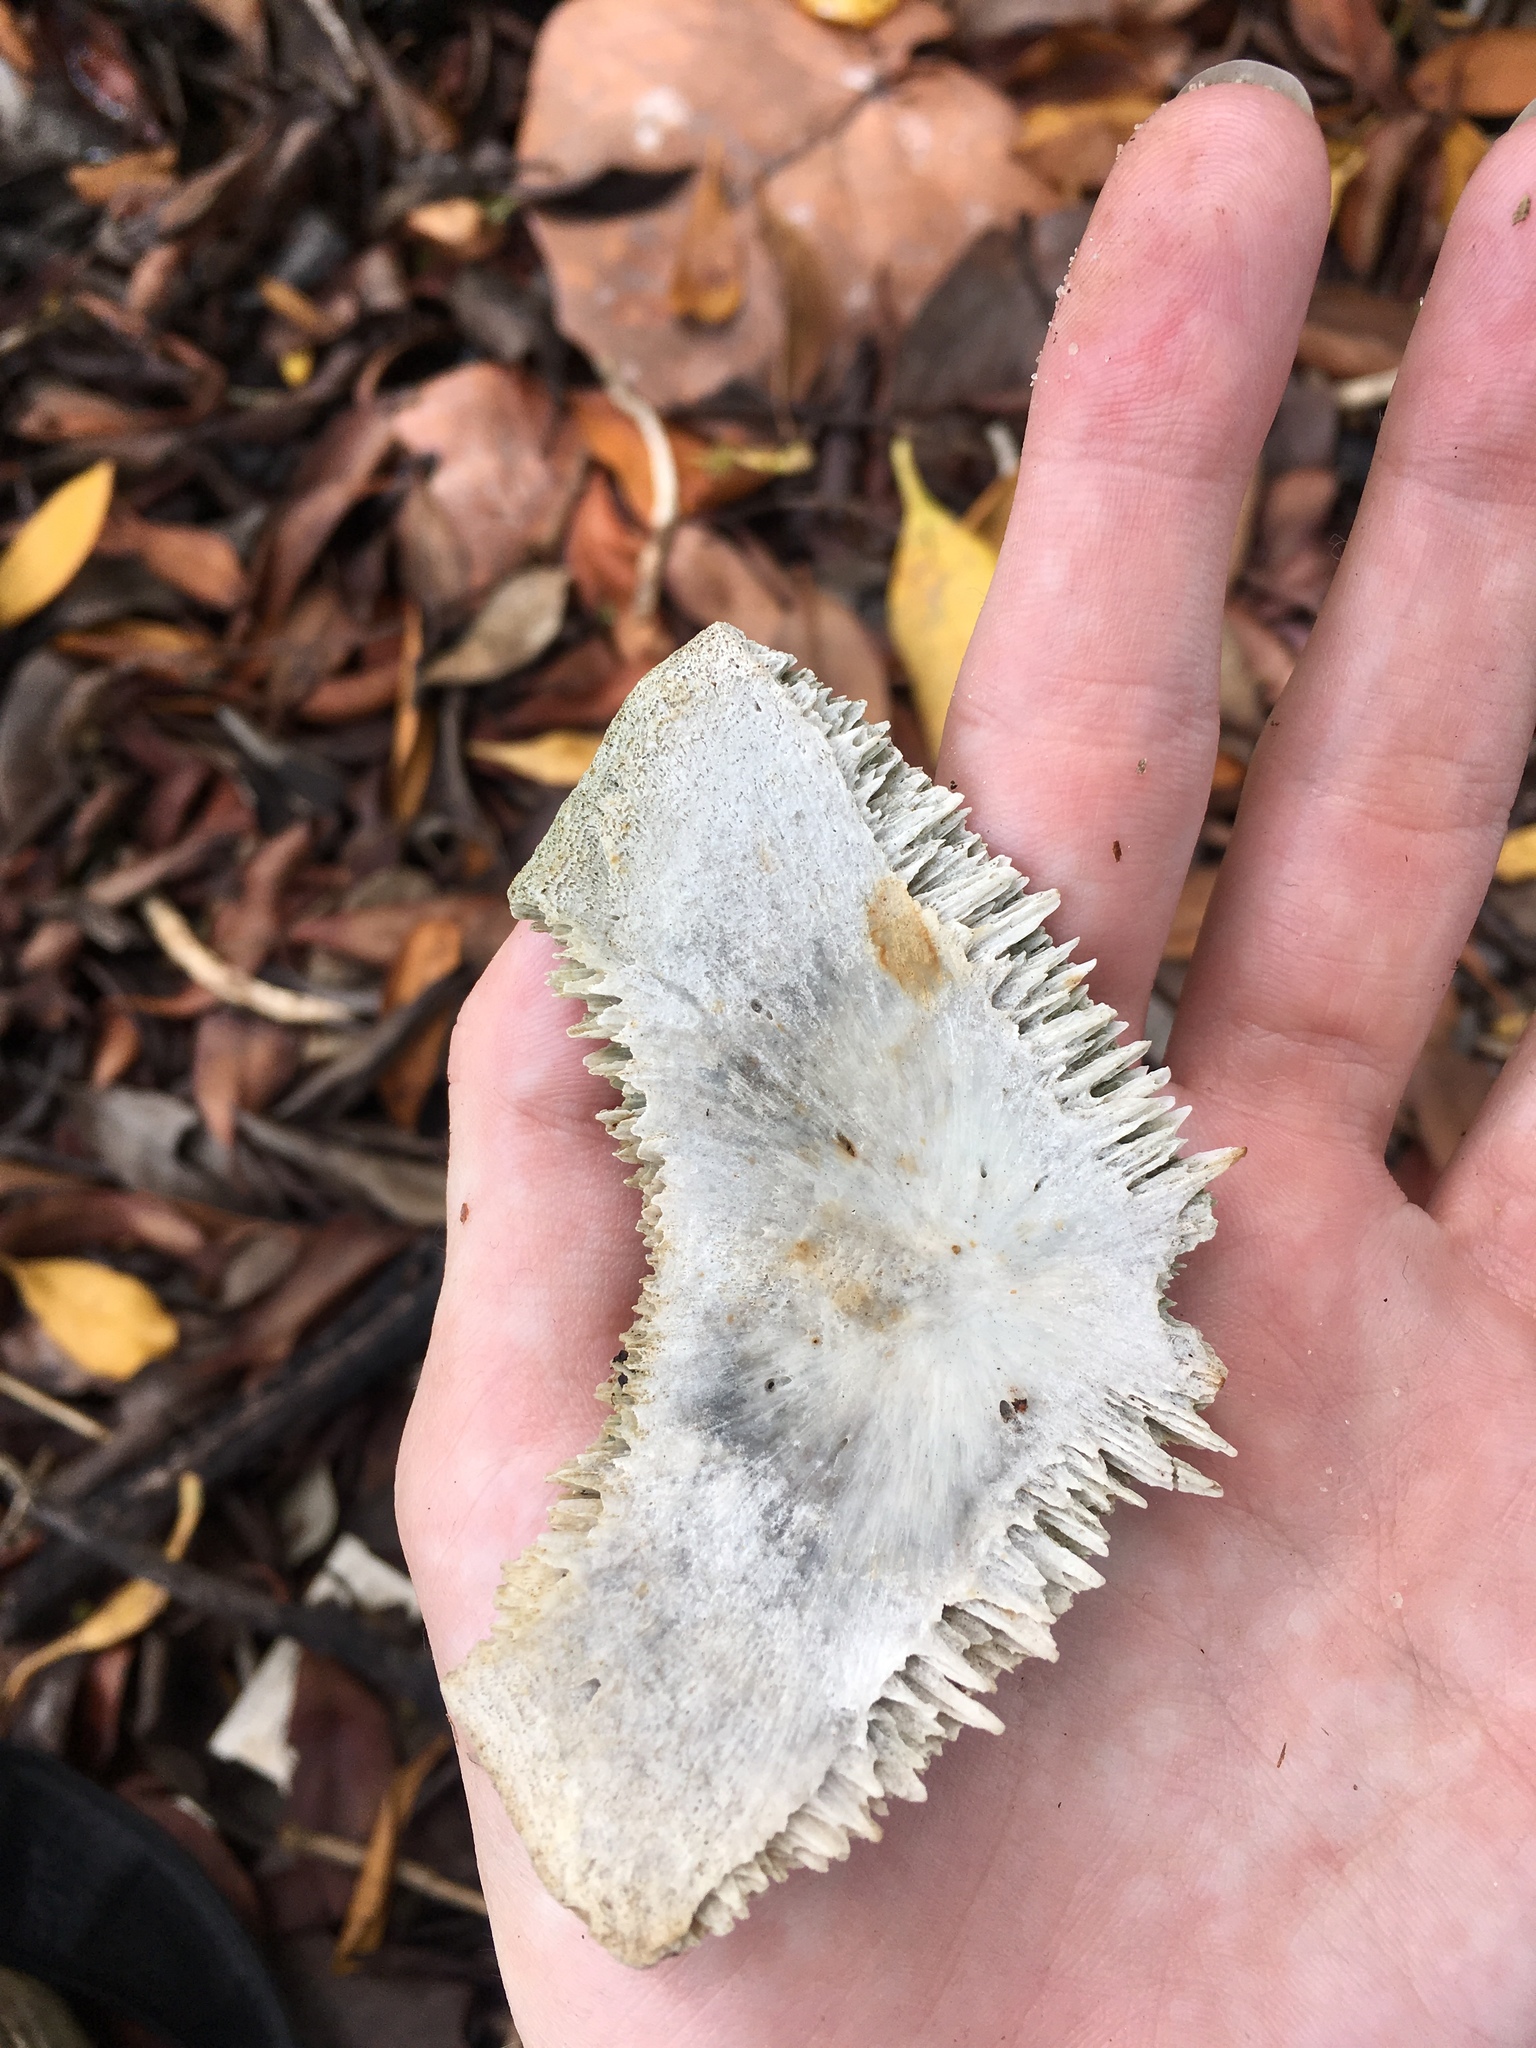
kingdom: Animalia
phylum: Chordata
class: Testudines
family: Cheloniidae
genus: Chelonia
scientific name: Chelonia mydas
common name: Green turtle
